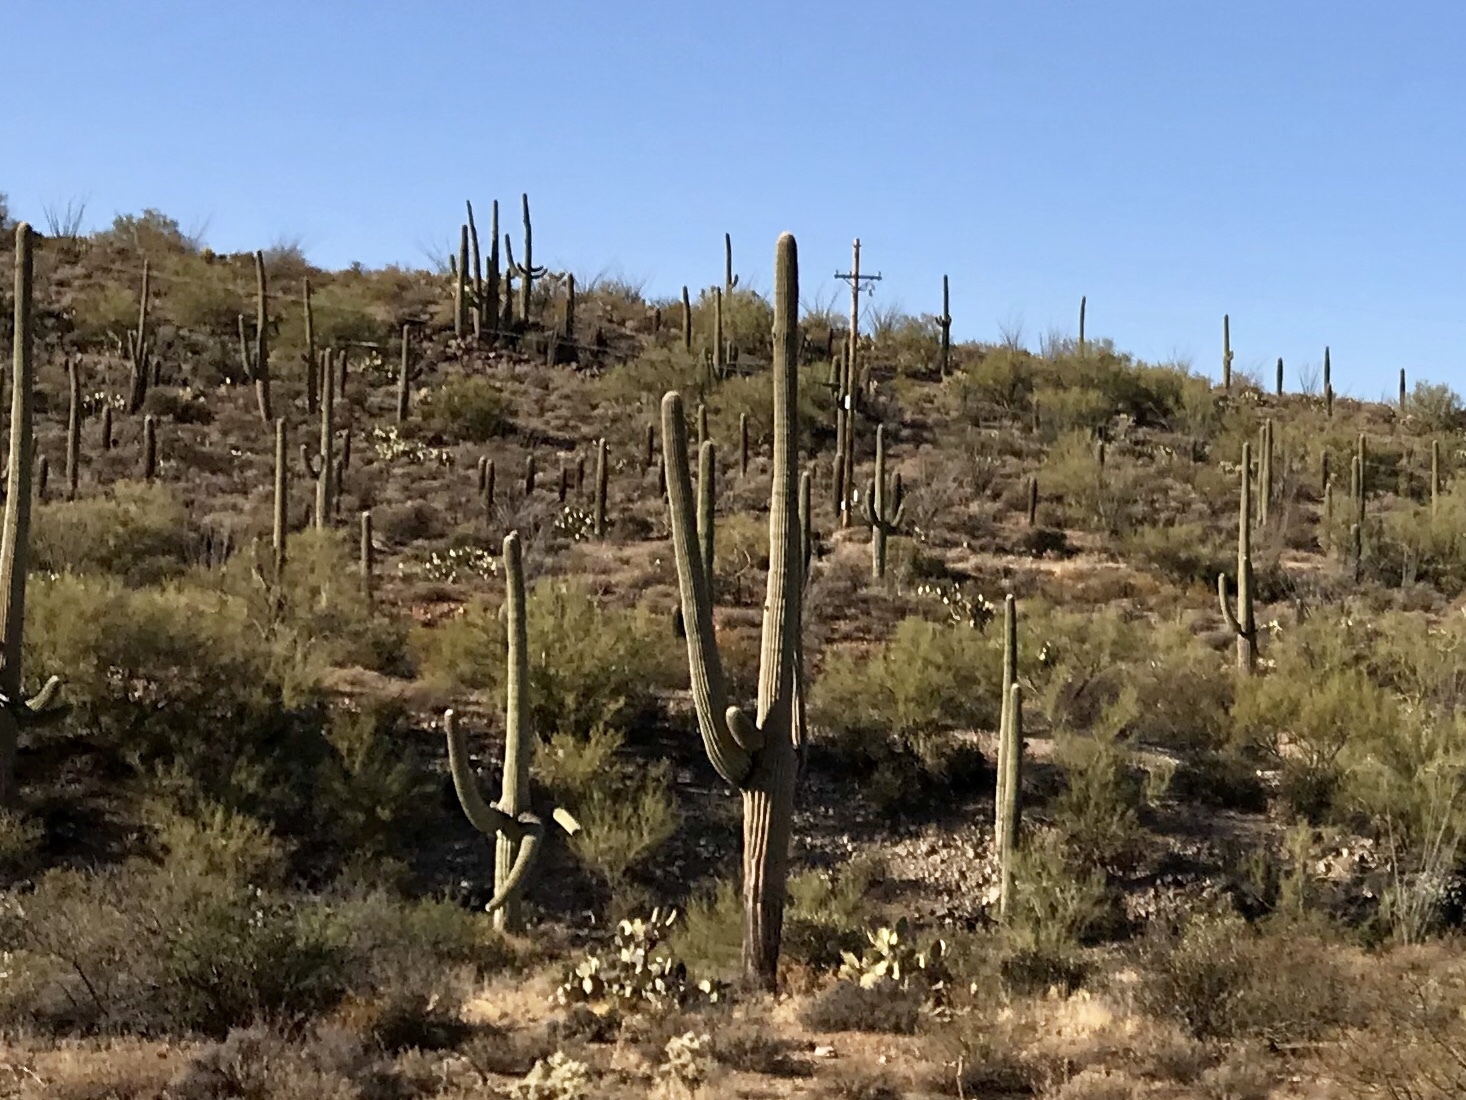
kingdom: Plantae
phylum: Tracheophyta
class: Magnoliopsida
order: Caryophyllales
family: Cactaceae
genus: Carnegiea
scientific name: Carnegiea gigantea
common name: Saguaro
